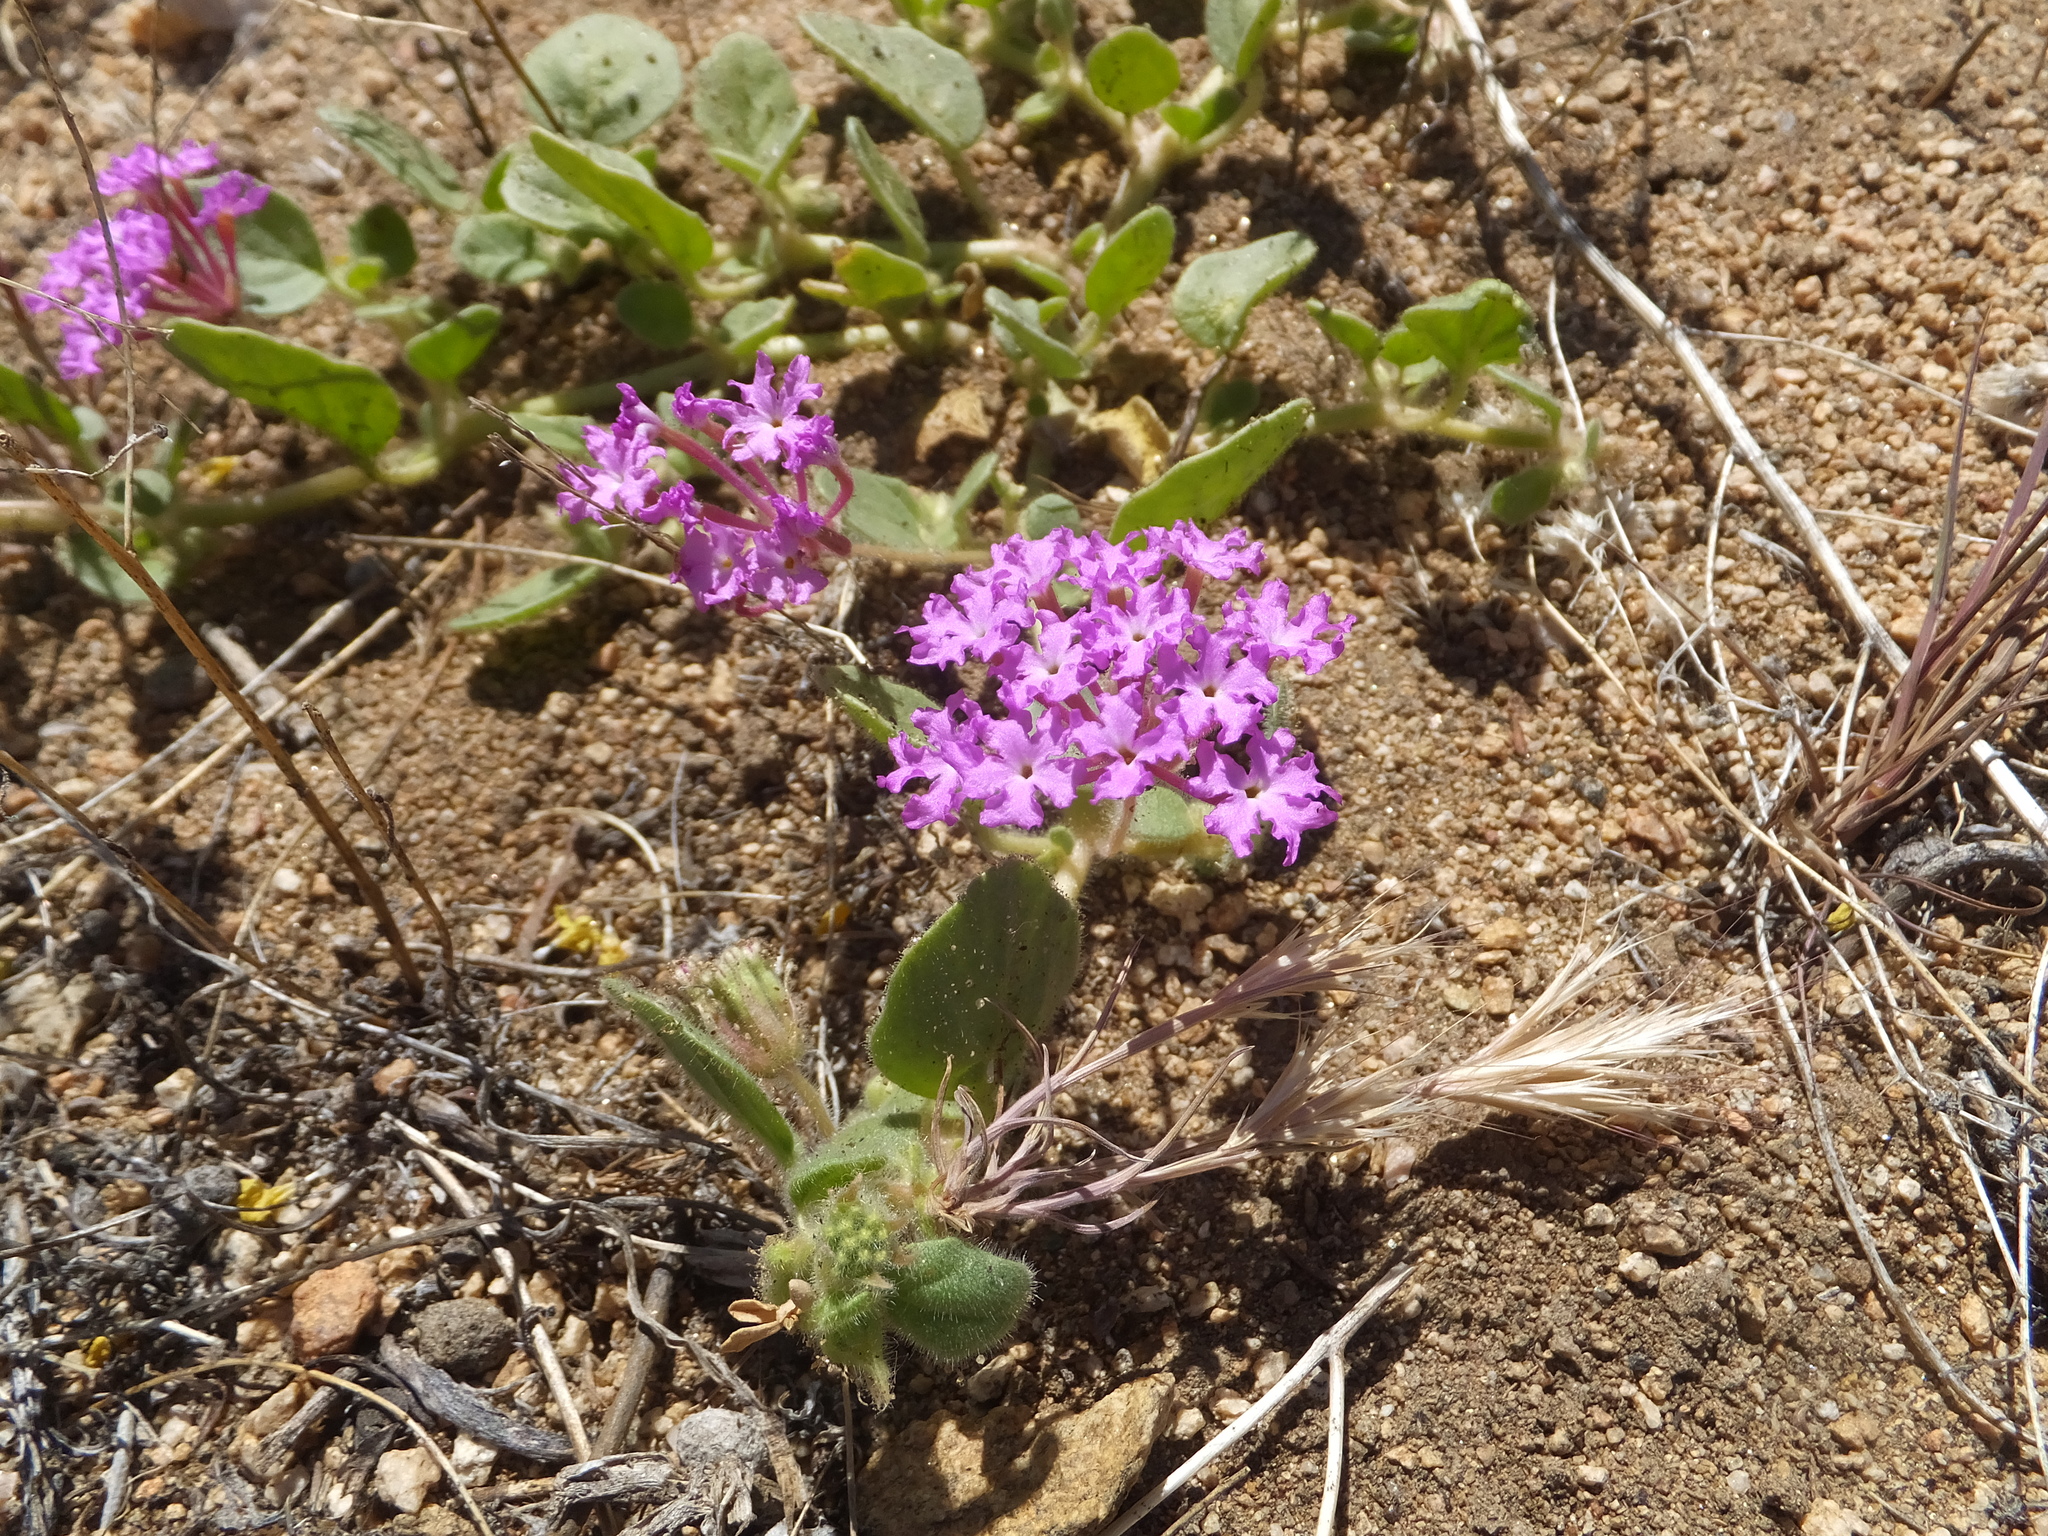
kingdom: Plantae
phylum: Tracheophyta
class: Magnoliopsida
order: Caryophyllales
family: Nyctaginaceae
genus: Abronia
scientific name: Abronia villosa
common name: Desert sand-verbena
